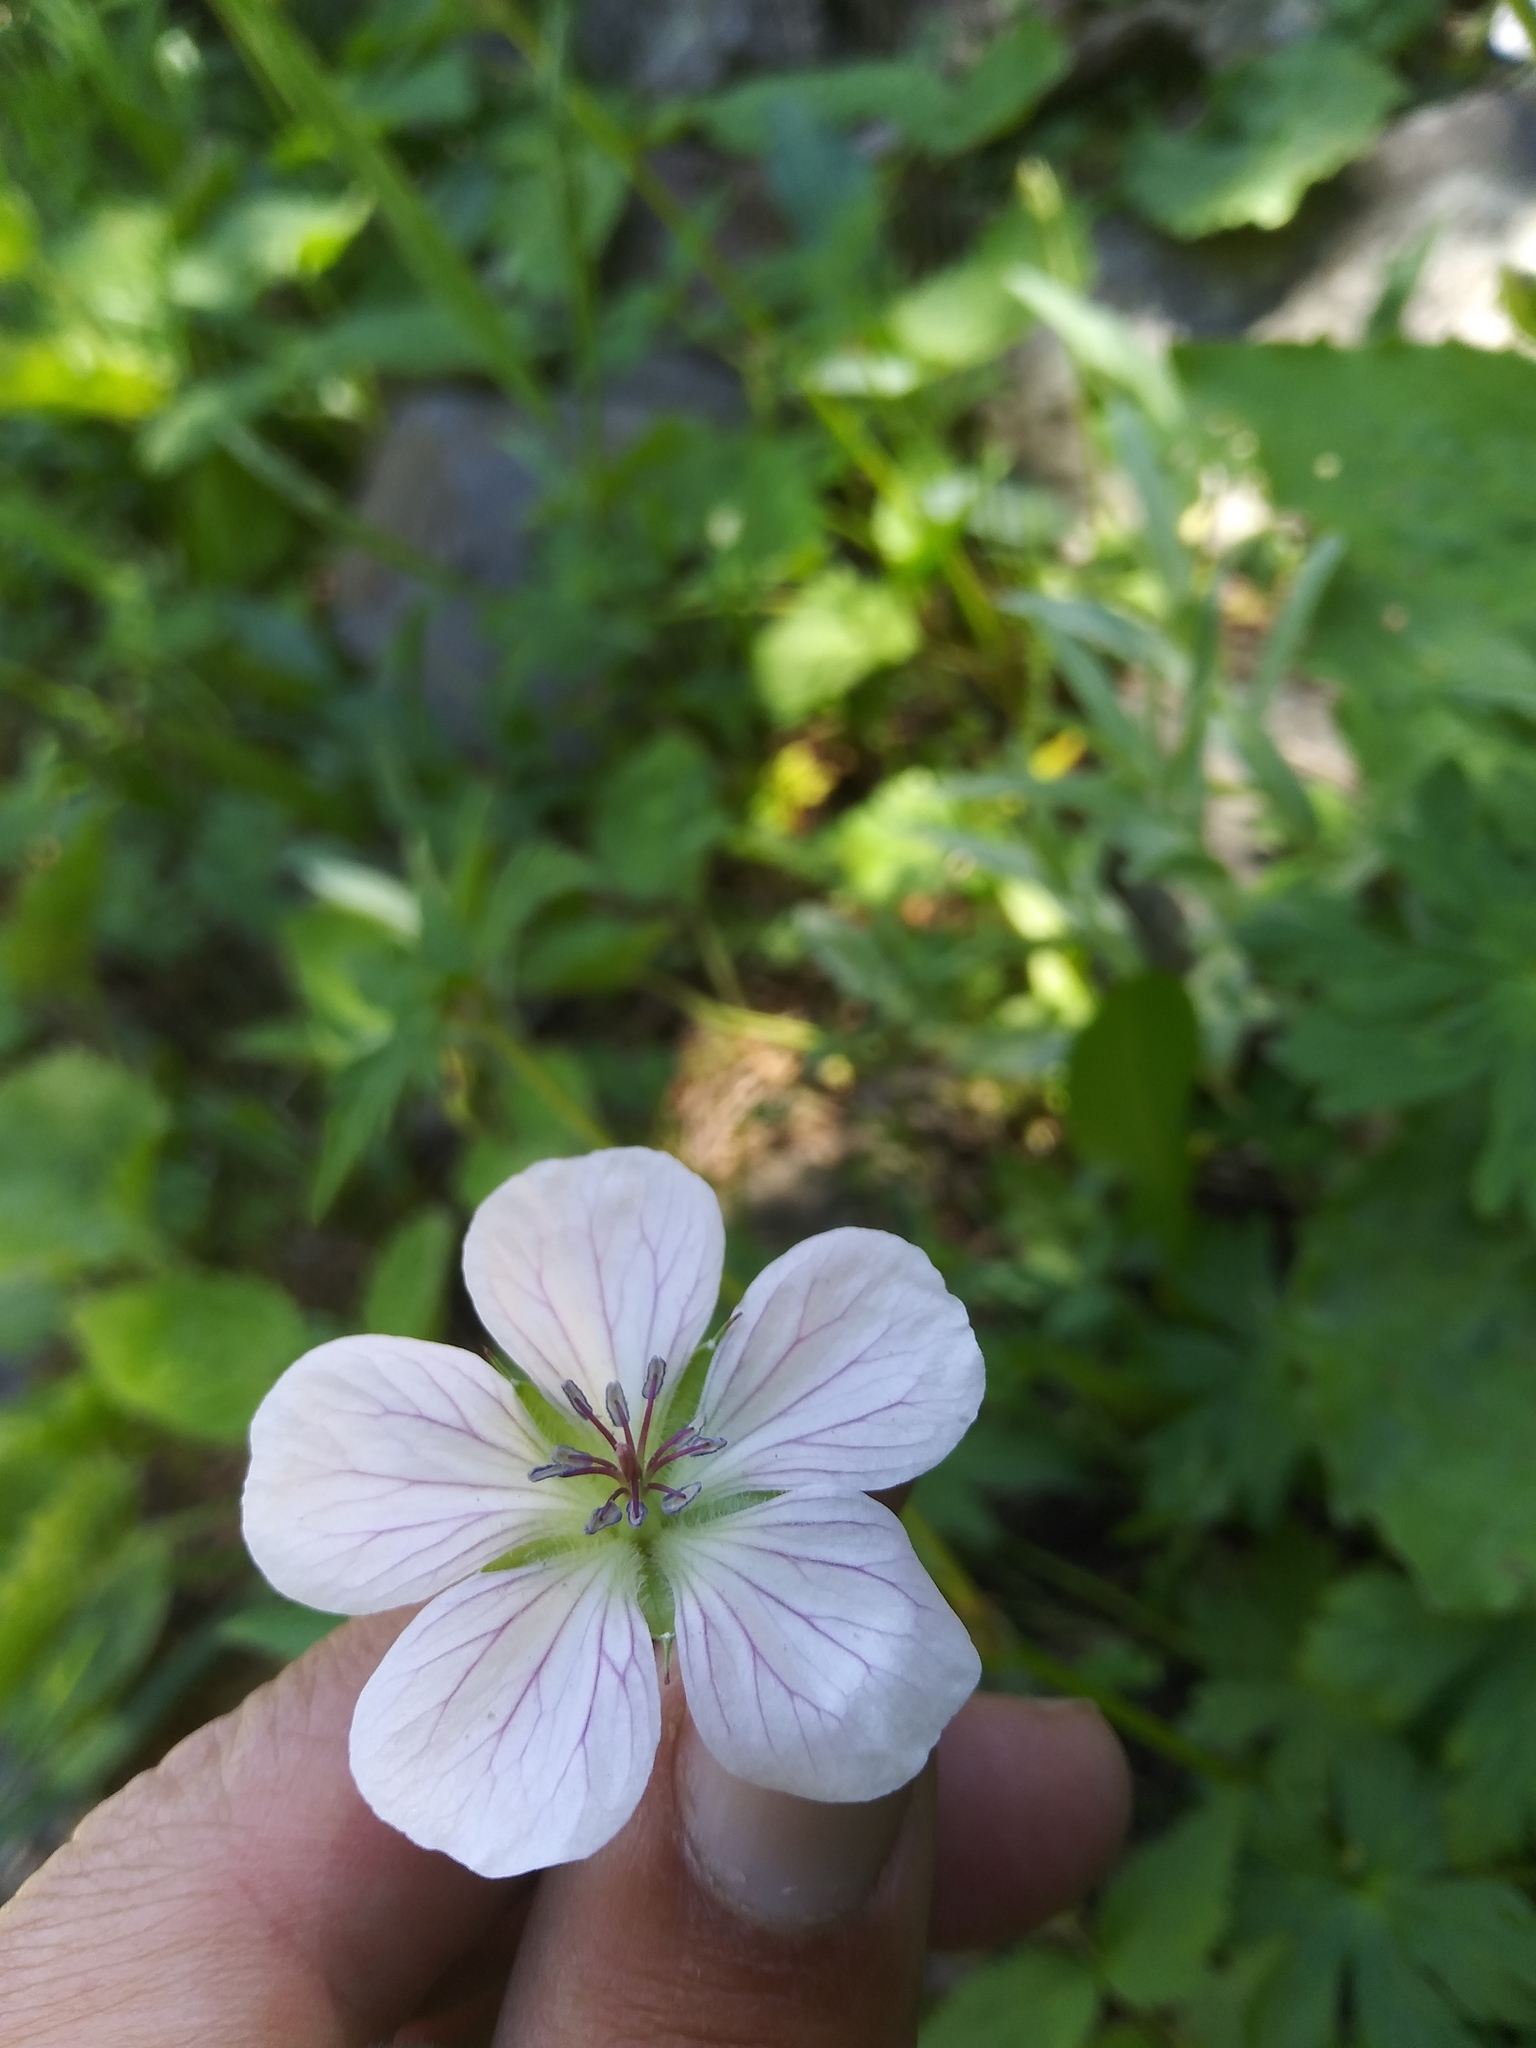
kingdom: Plantae
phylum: Tracheophyta
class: Magnoliopsida
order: Geraniales
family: Geraniaceae
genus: Geranium
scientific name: Geranium richardsonii
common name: Richardson's crane's-bill
